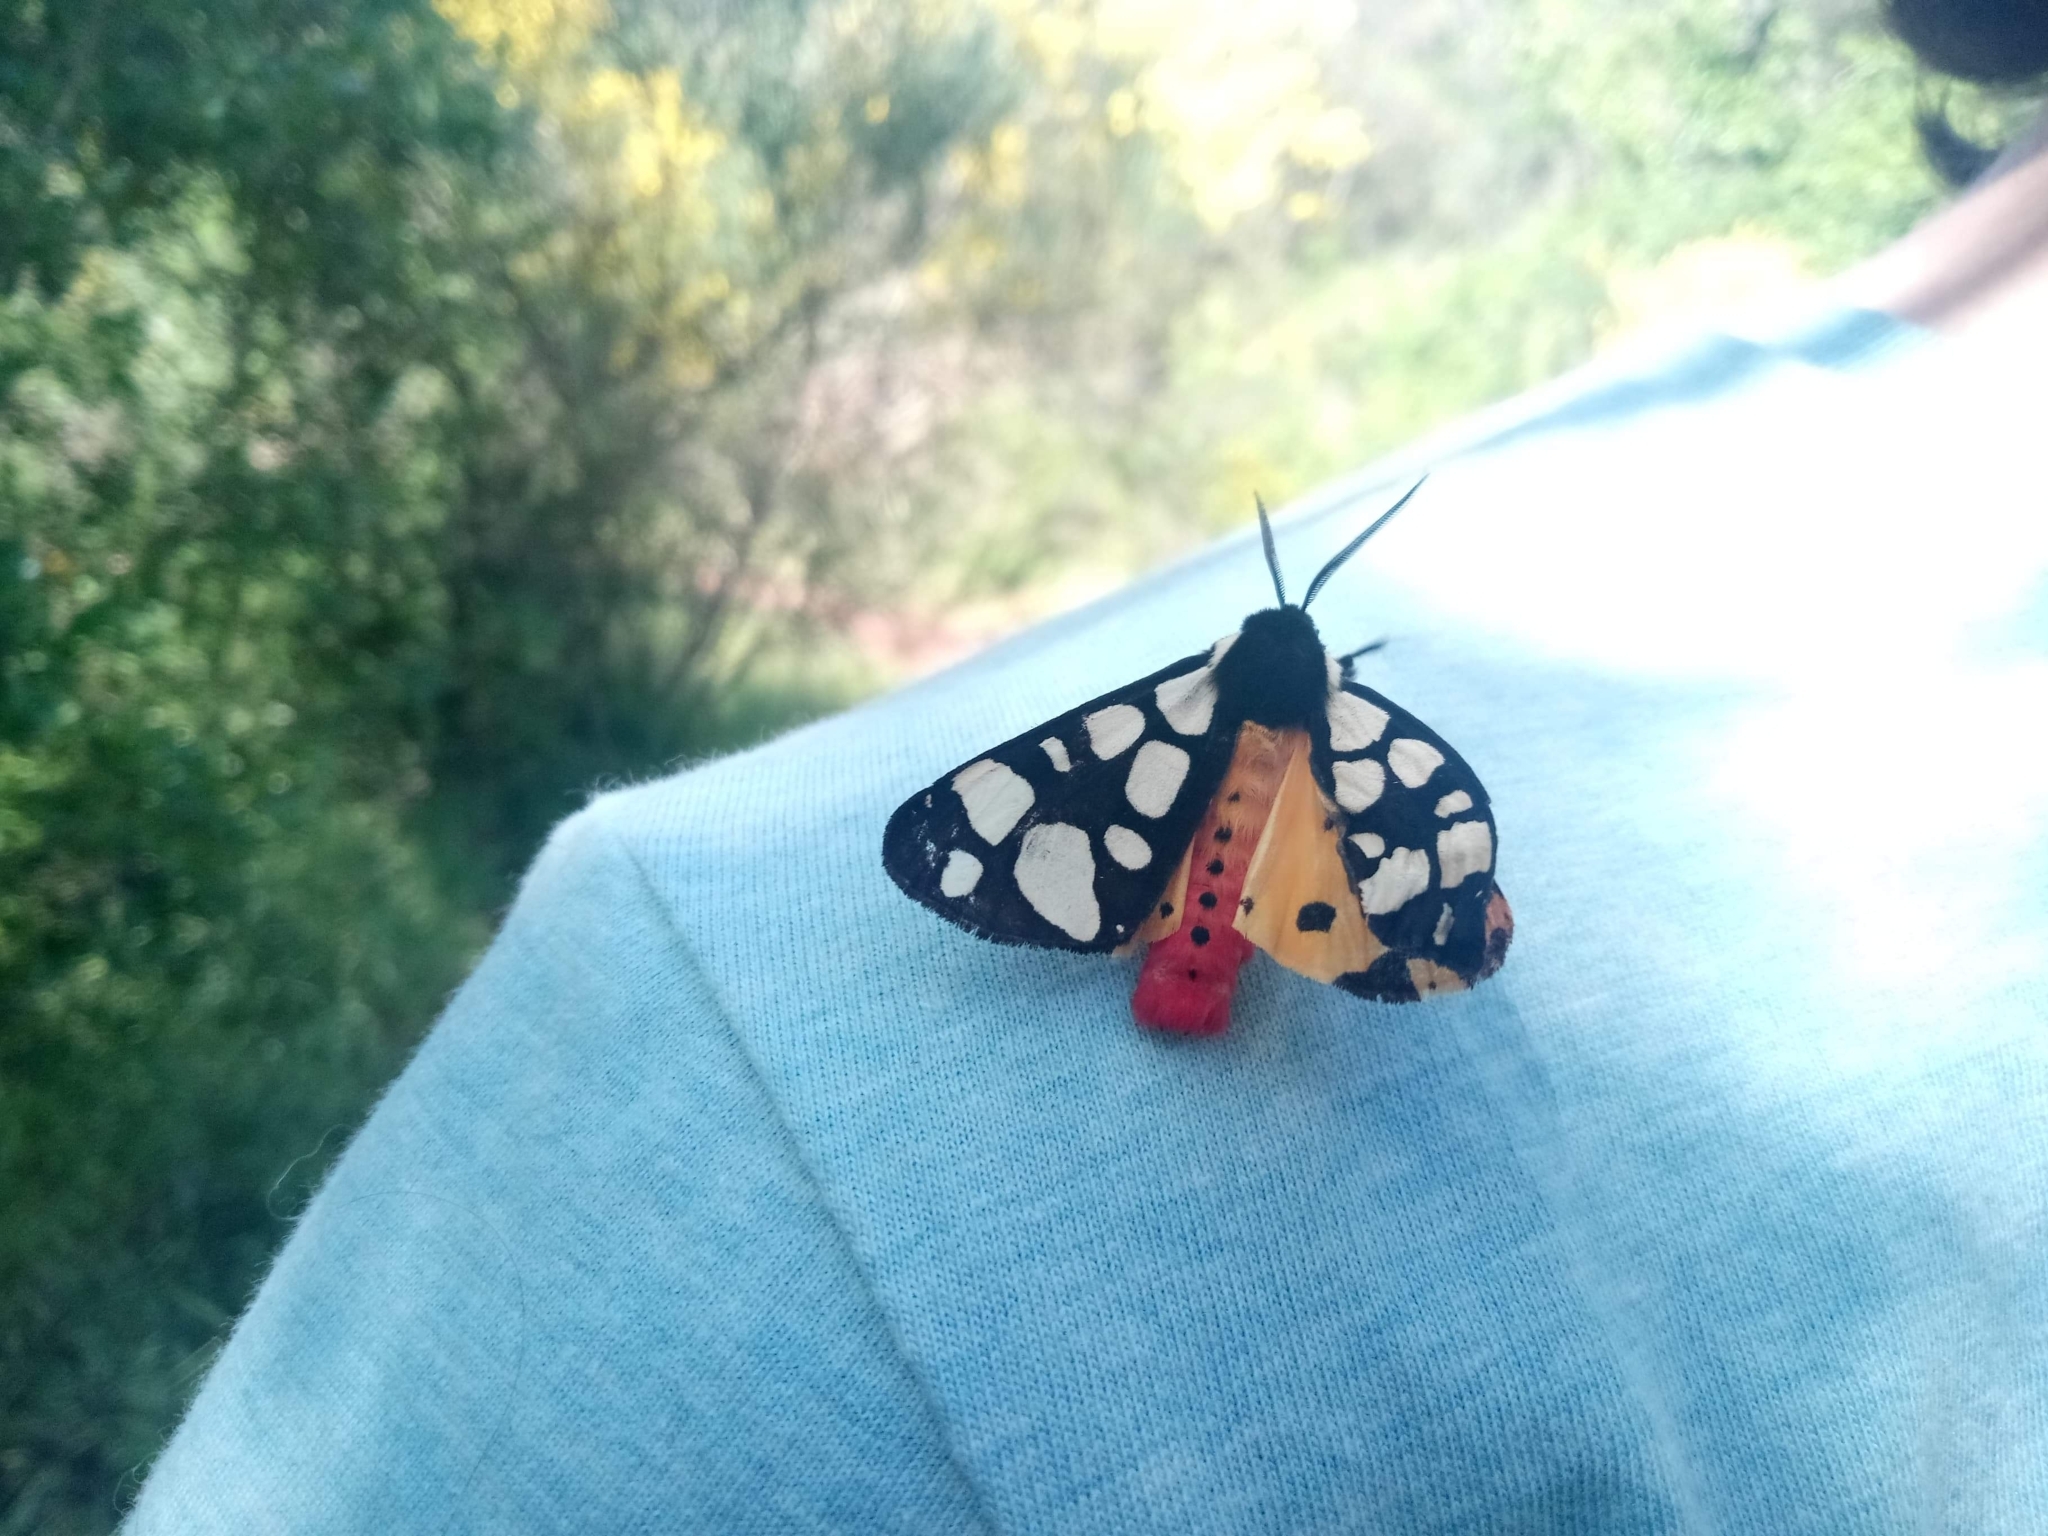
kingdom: Animalia
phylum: Arthropoda
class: Insecta
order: Lepidoptera
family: Erebidae
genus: Epicallia
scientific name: Epicallia villica
